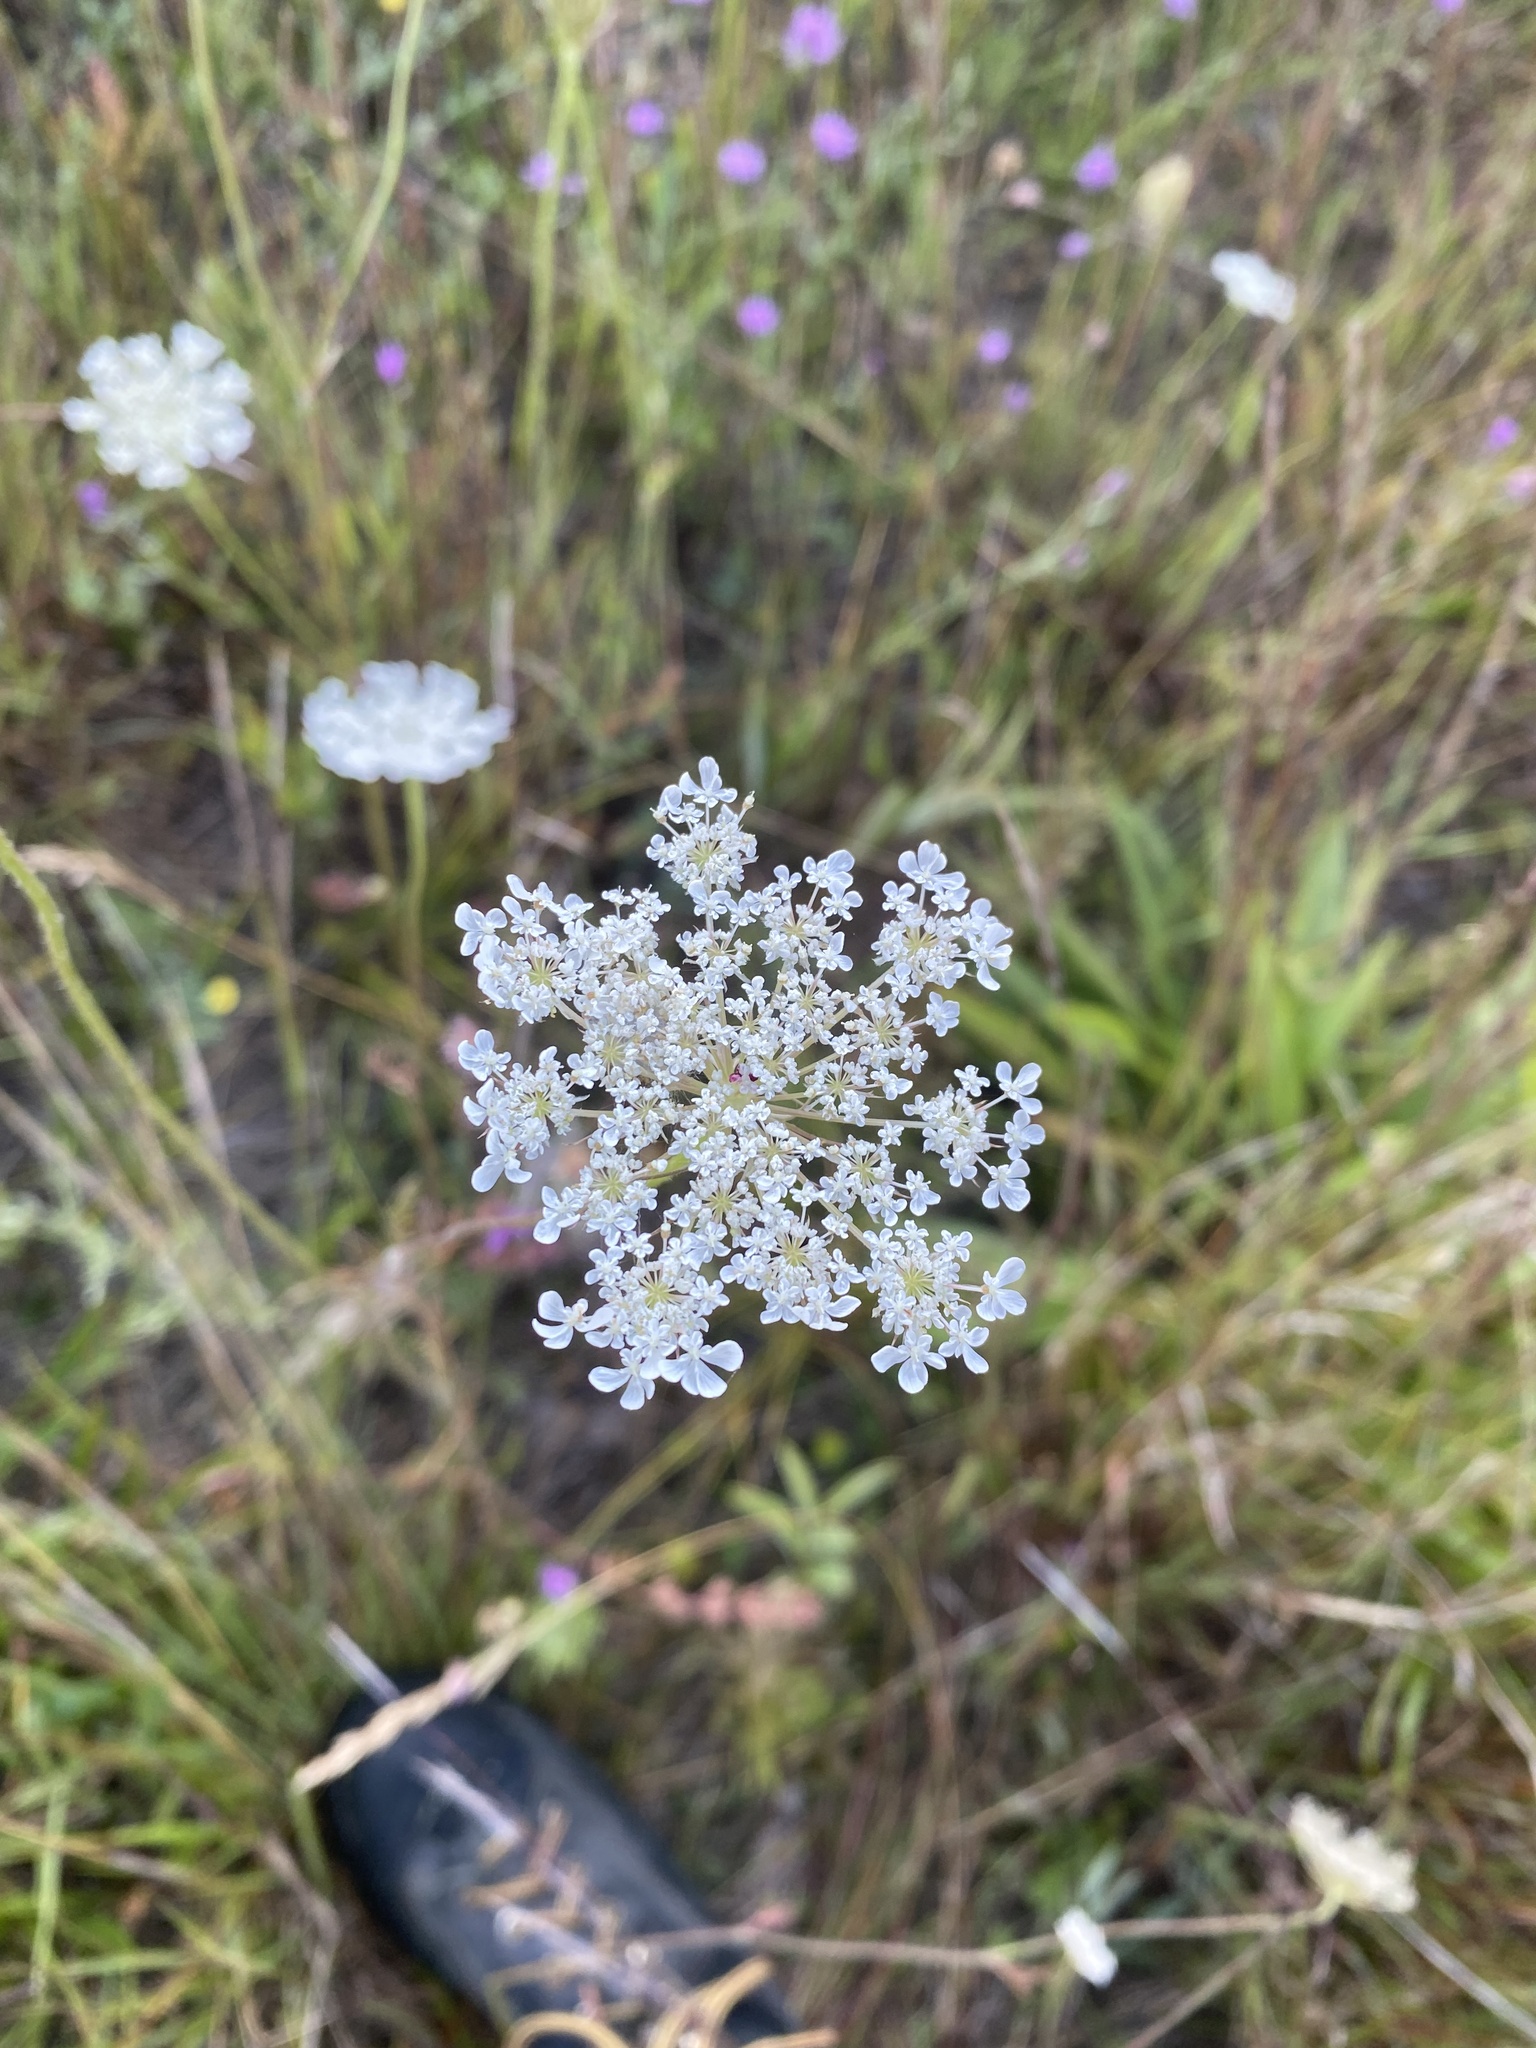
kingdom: Plantae
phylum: Tracheophyta
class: Magnoliopsida
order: Apiales
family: Apiaceae
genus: Daucus
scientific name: Daucus carota
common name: Wild carrot
